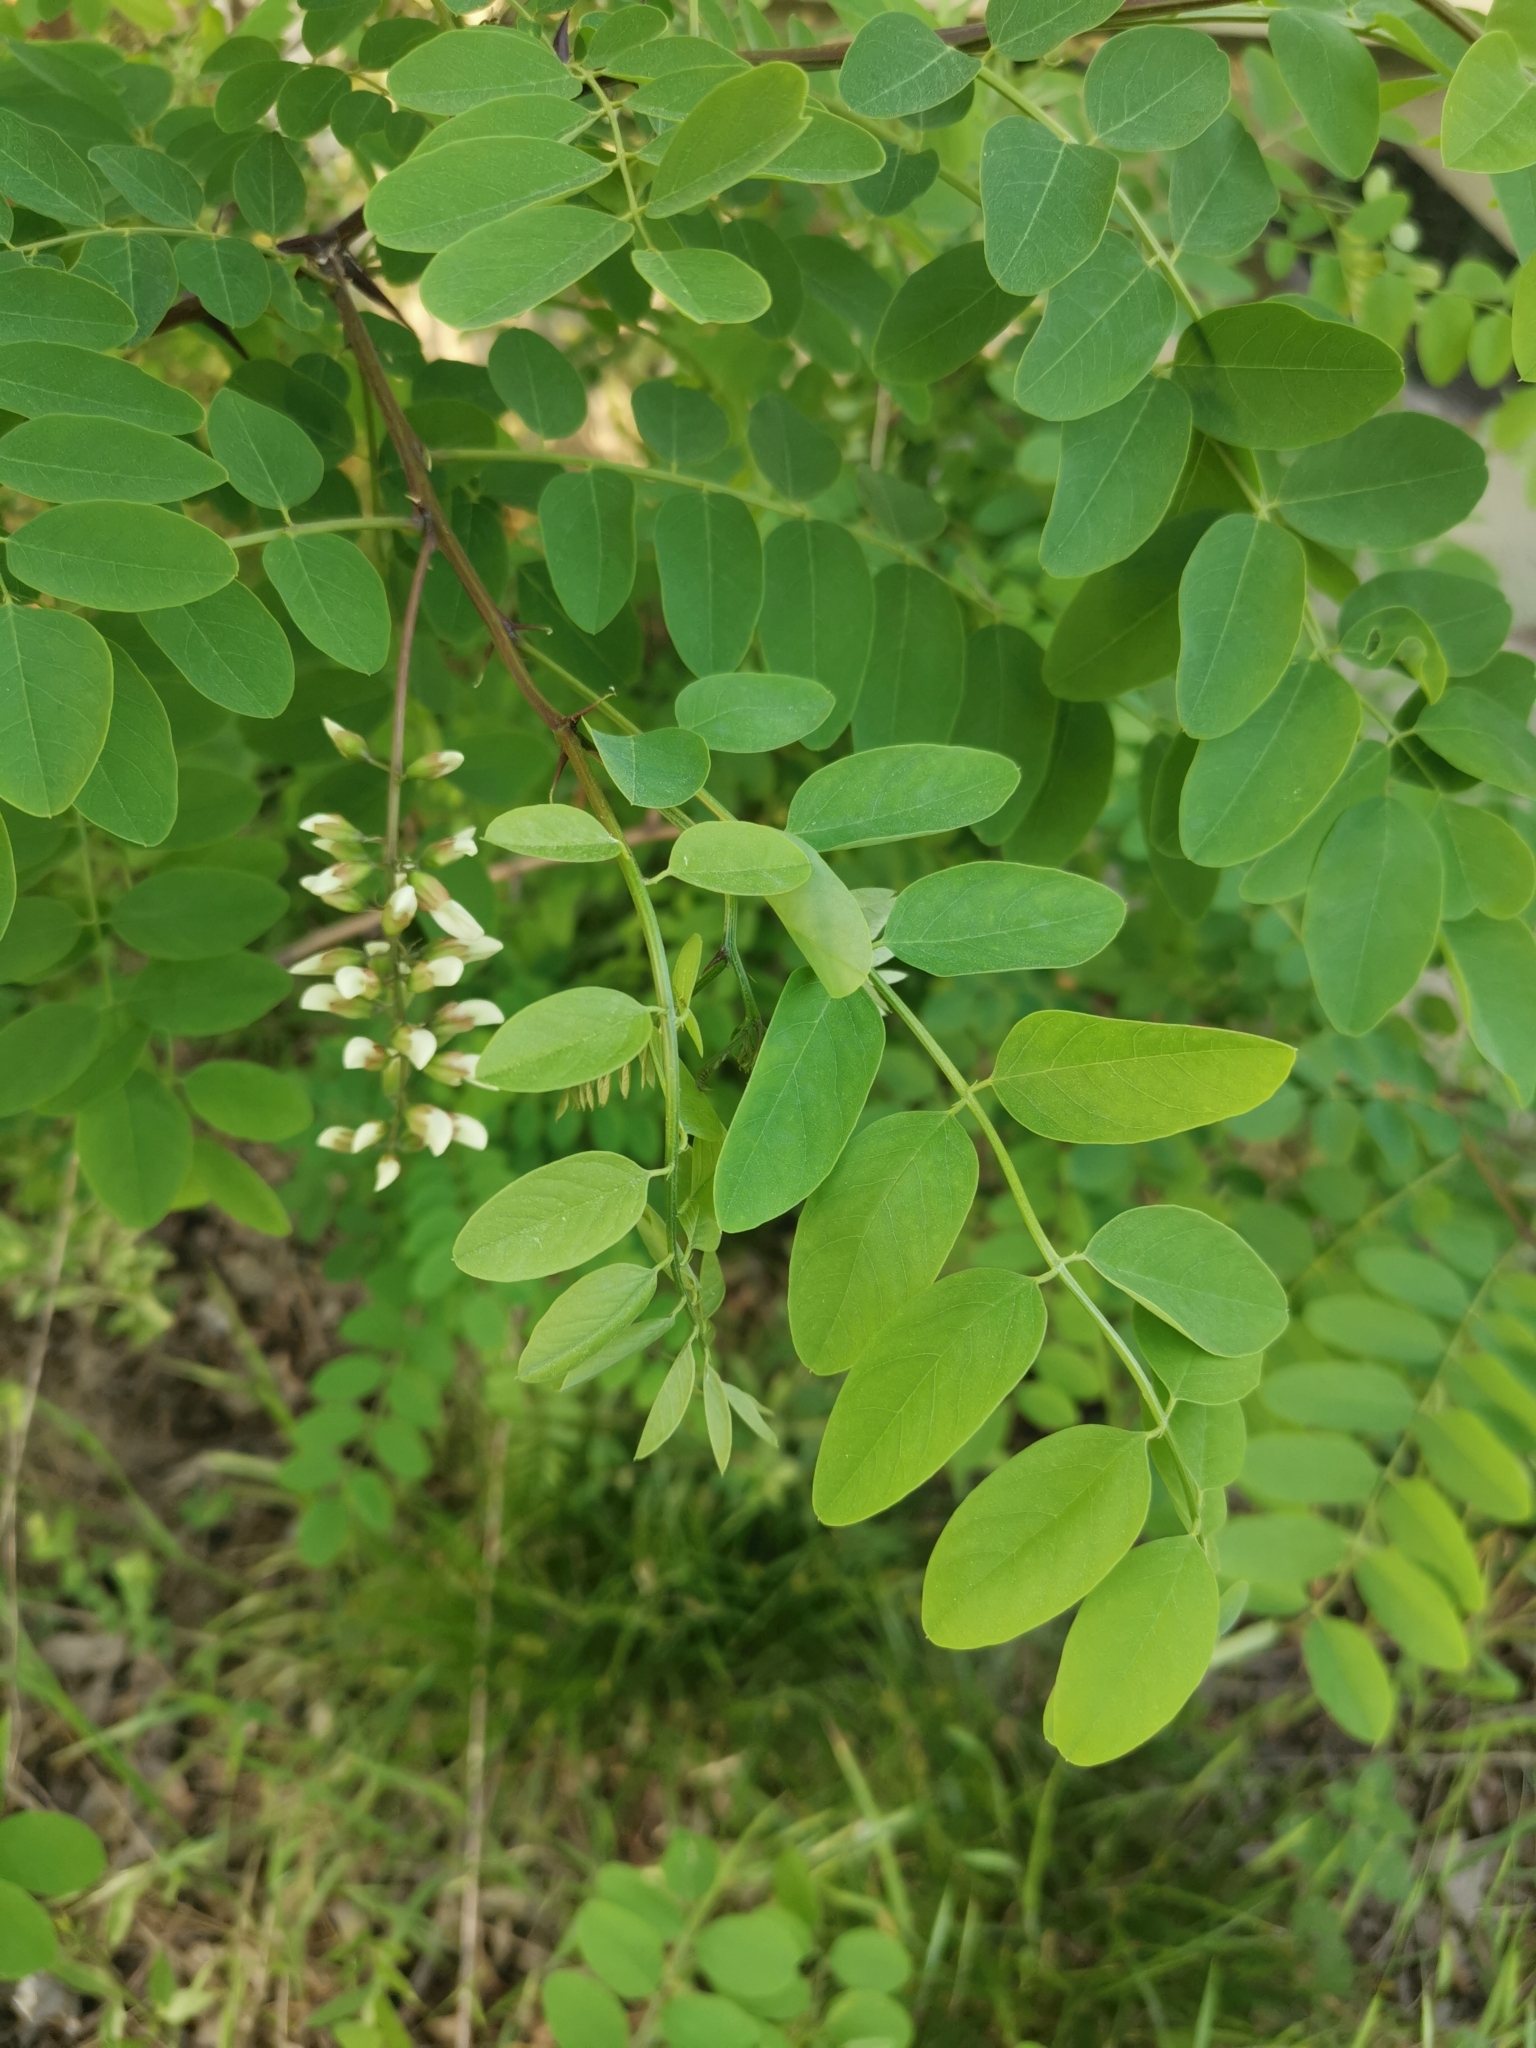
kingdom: Plantae
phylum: Tracheophyta
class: Magnoliopsida
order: Fabales
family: Fabaceae
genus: Robinia
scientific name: Robinia pseudoacacia
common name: Black locust
